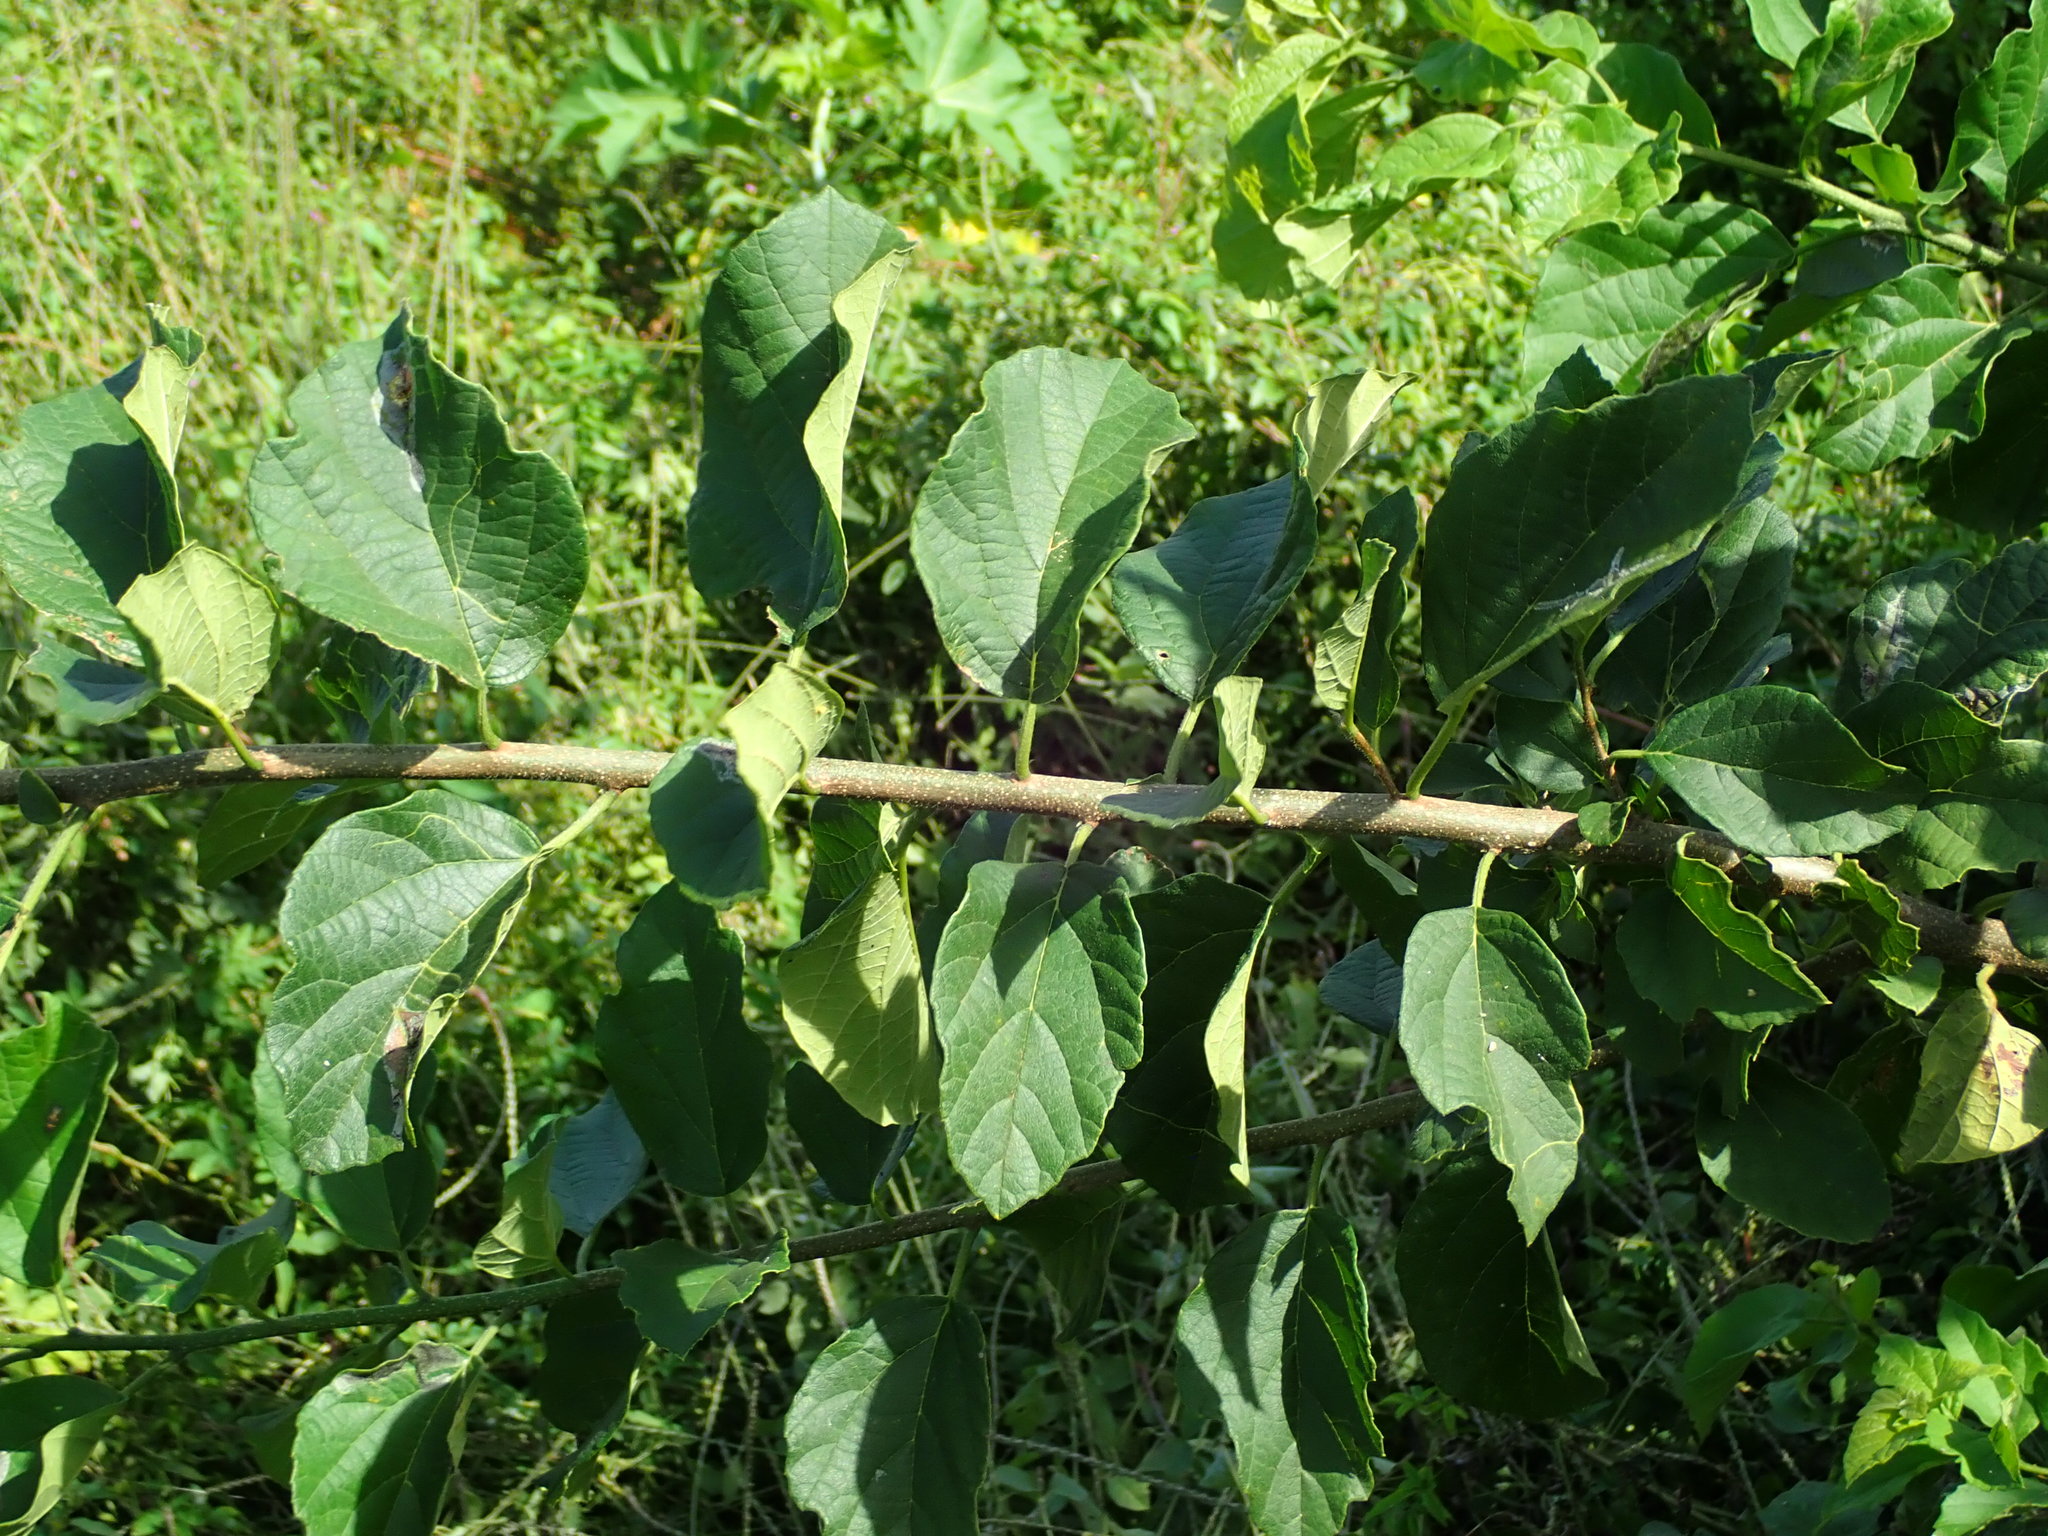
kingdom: Plantae
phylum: Tracheophyta
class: Magnoliopsida
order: Boraginales
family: Cordiaceae
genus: Cordia
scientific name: Cordia dentata
